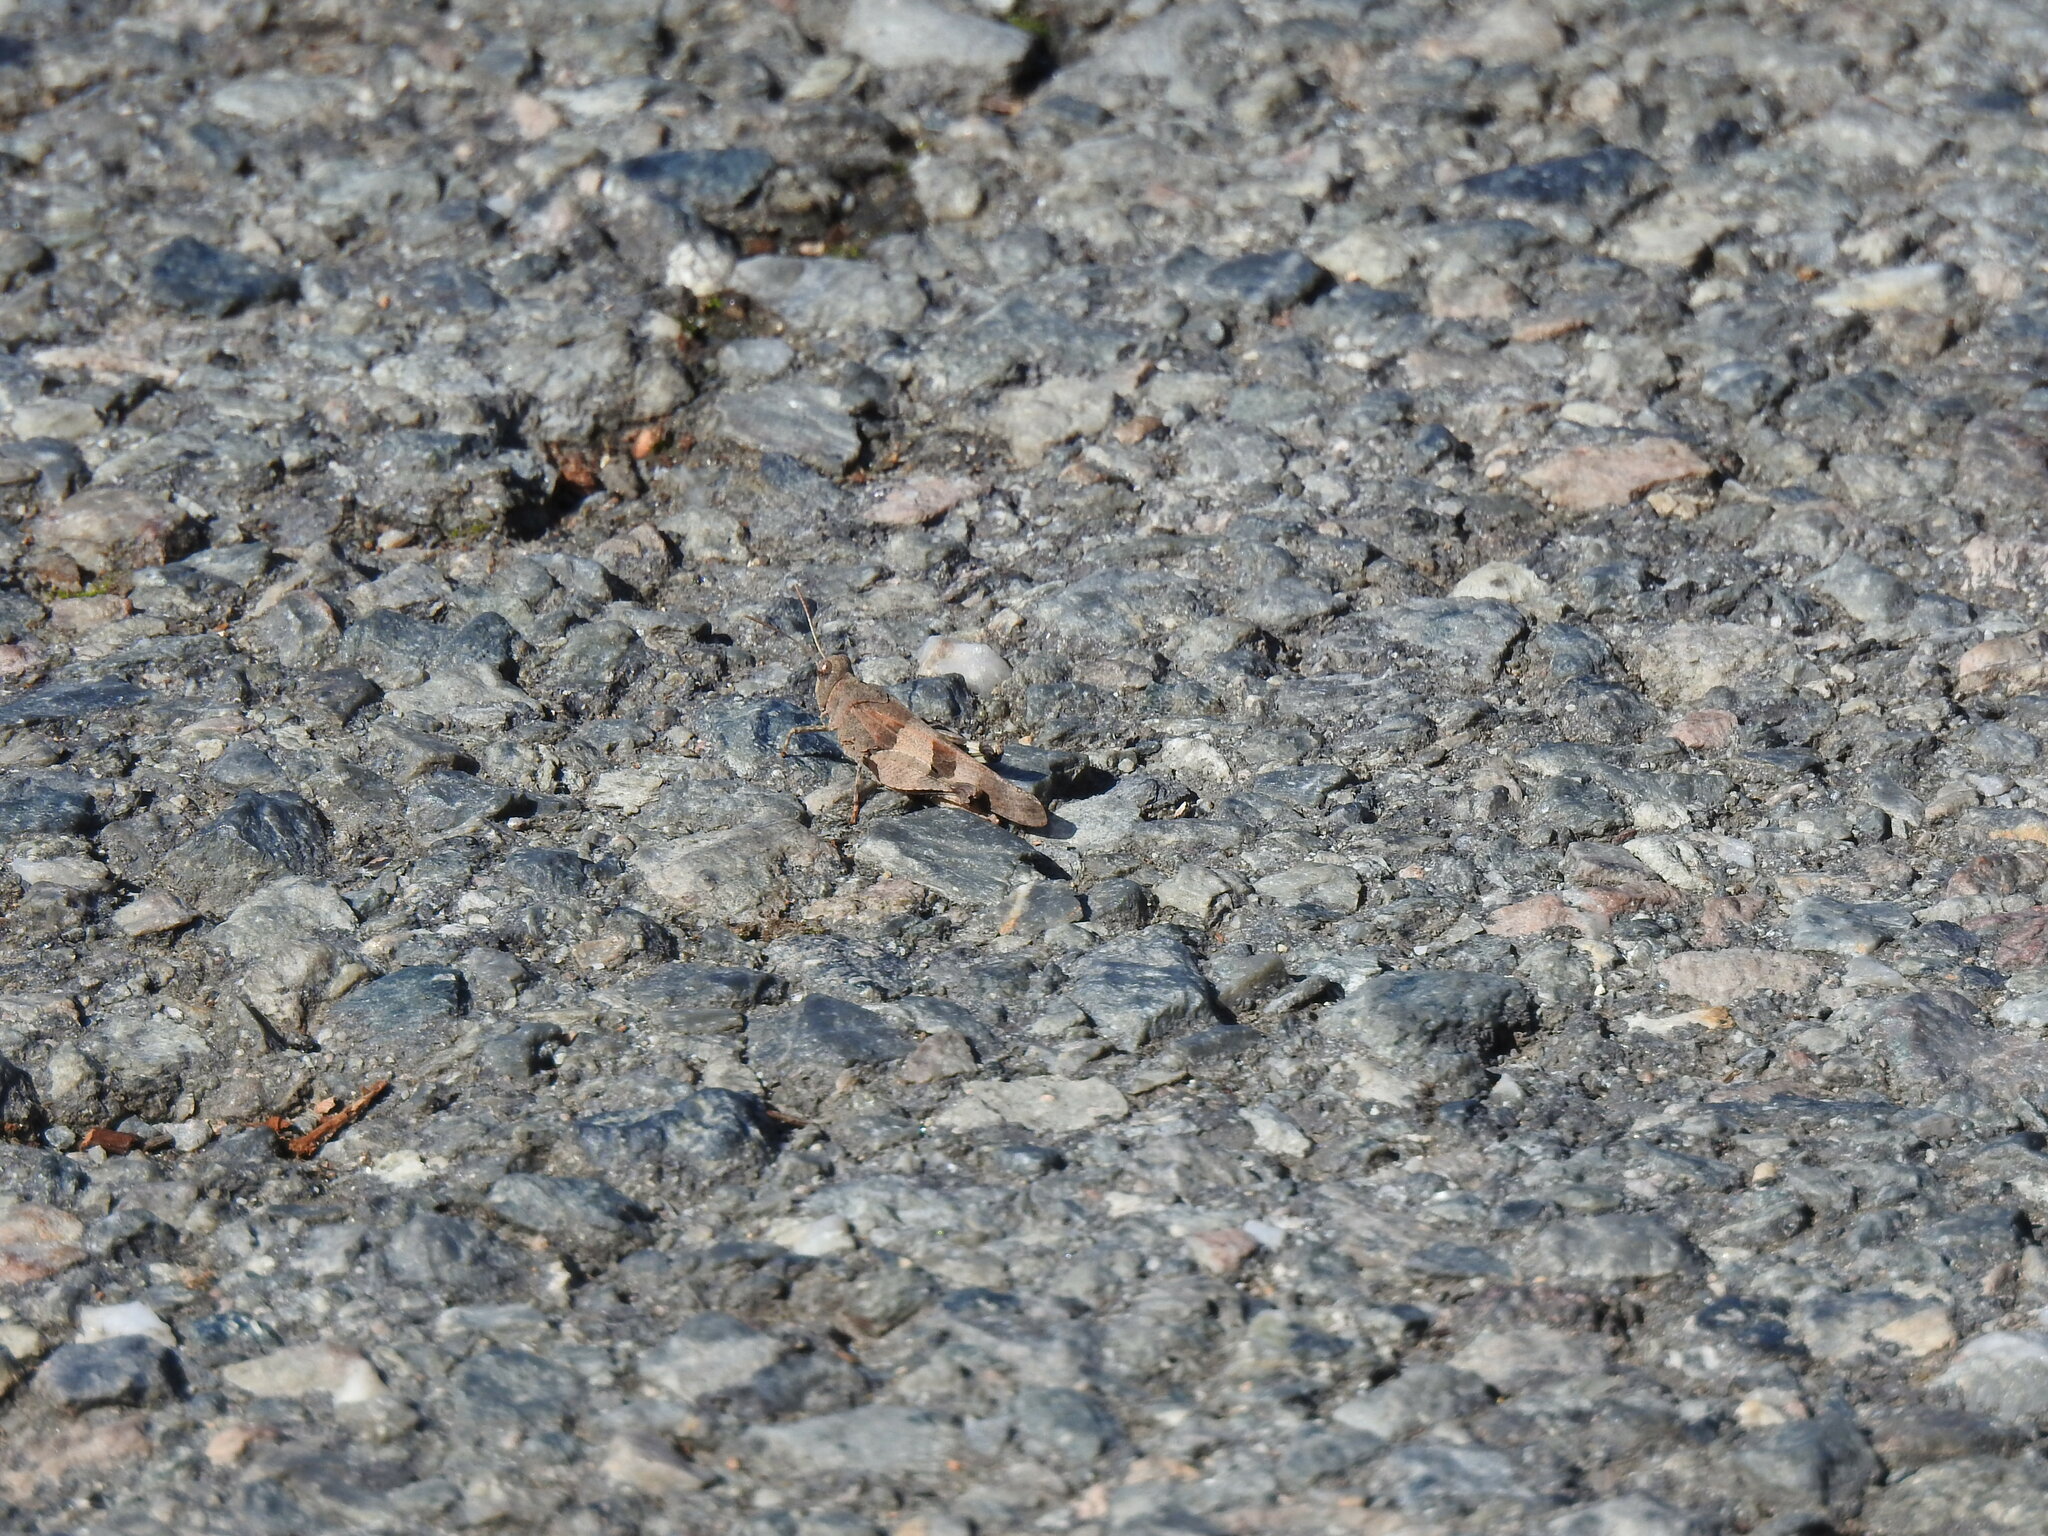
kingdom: Animalia
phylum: Arthropoda
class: Insecta
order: Orthoptera
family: Acrididae
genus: Oedipoda
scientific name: Oedipoda caerulescens
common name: Blue-winged grasshopper
